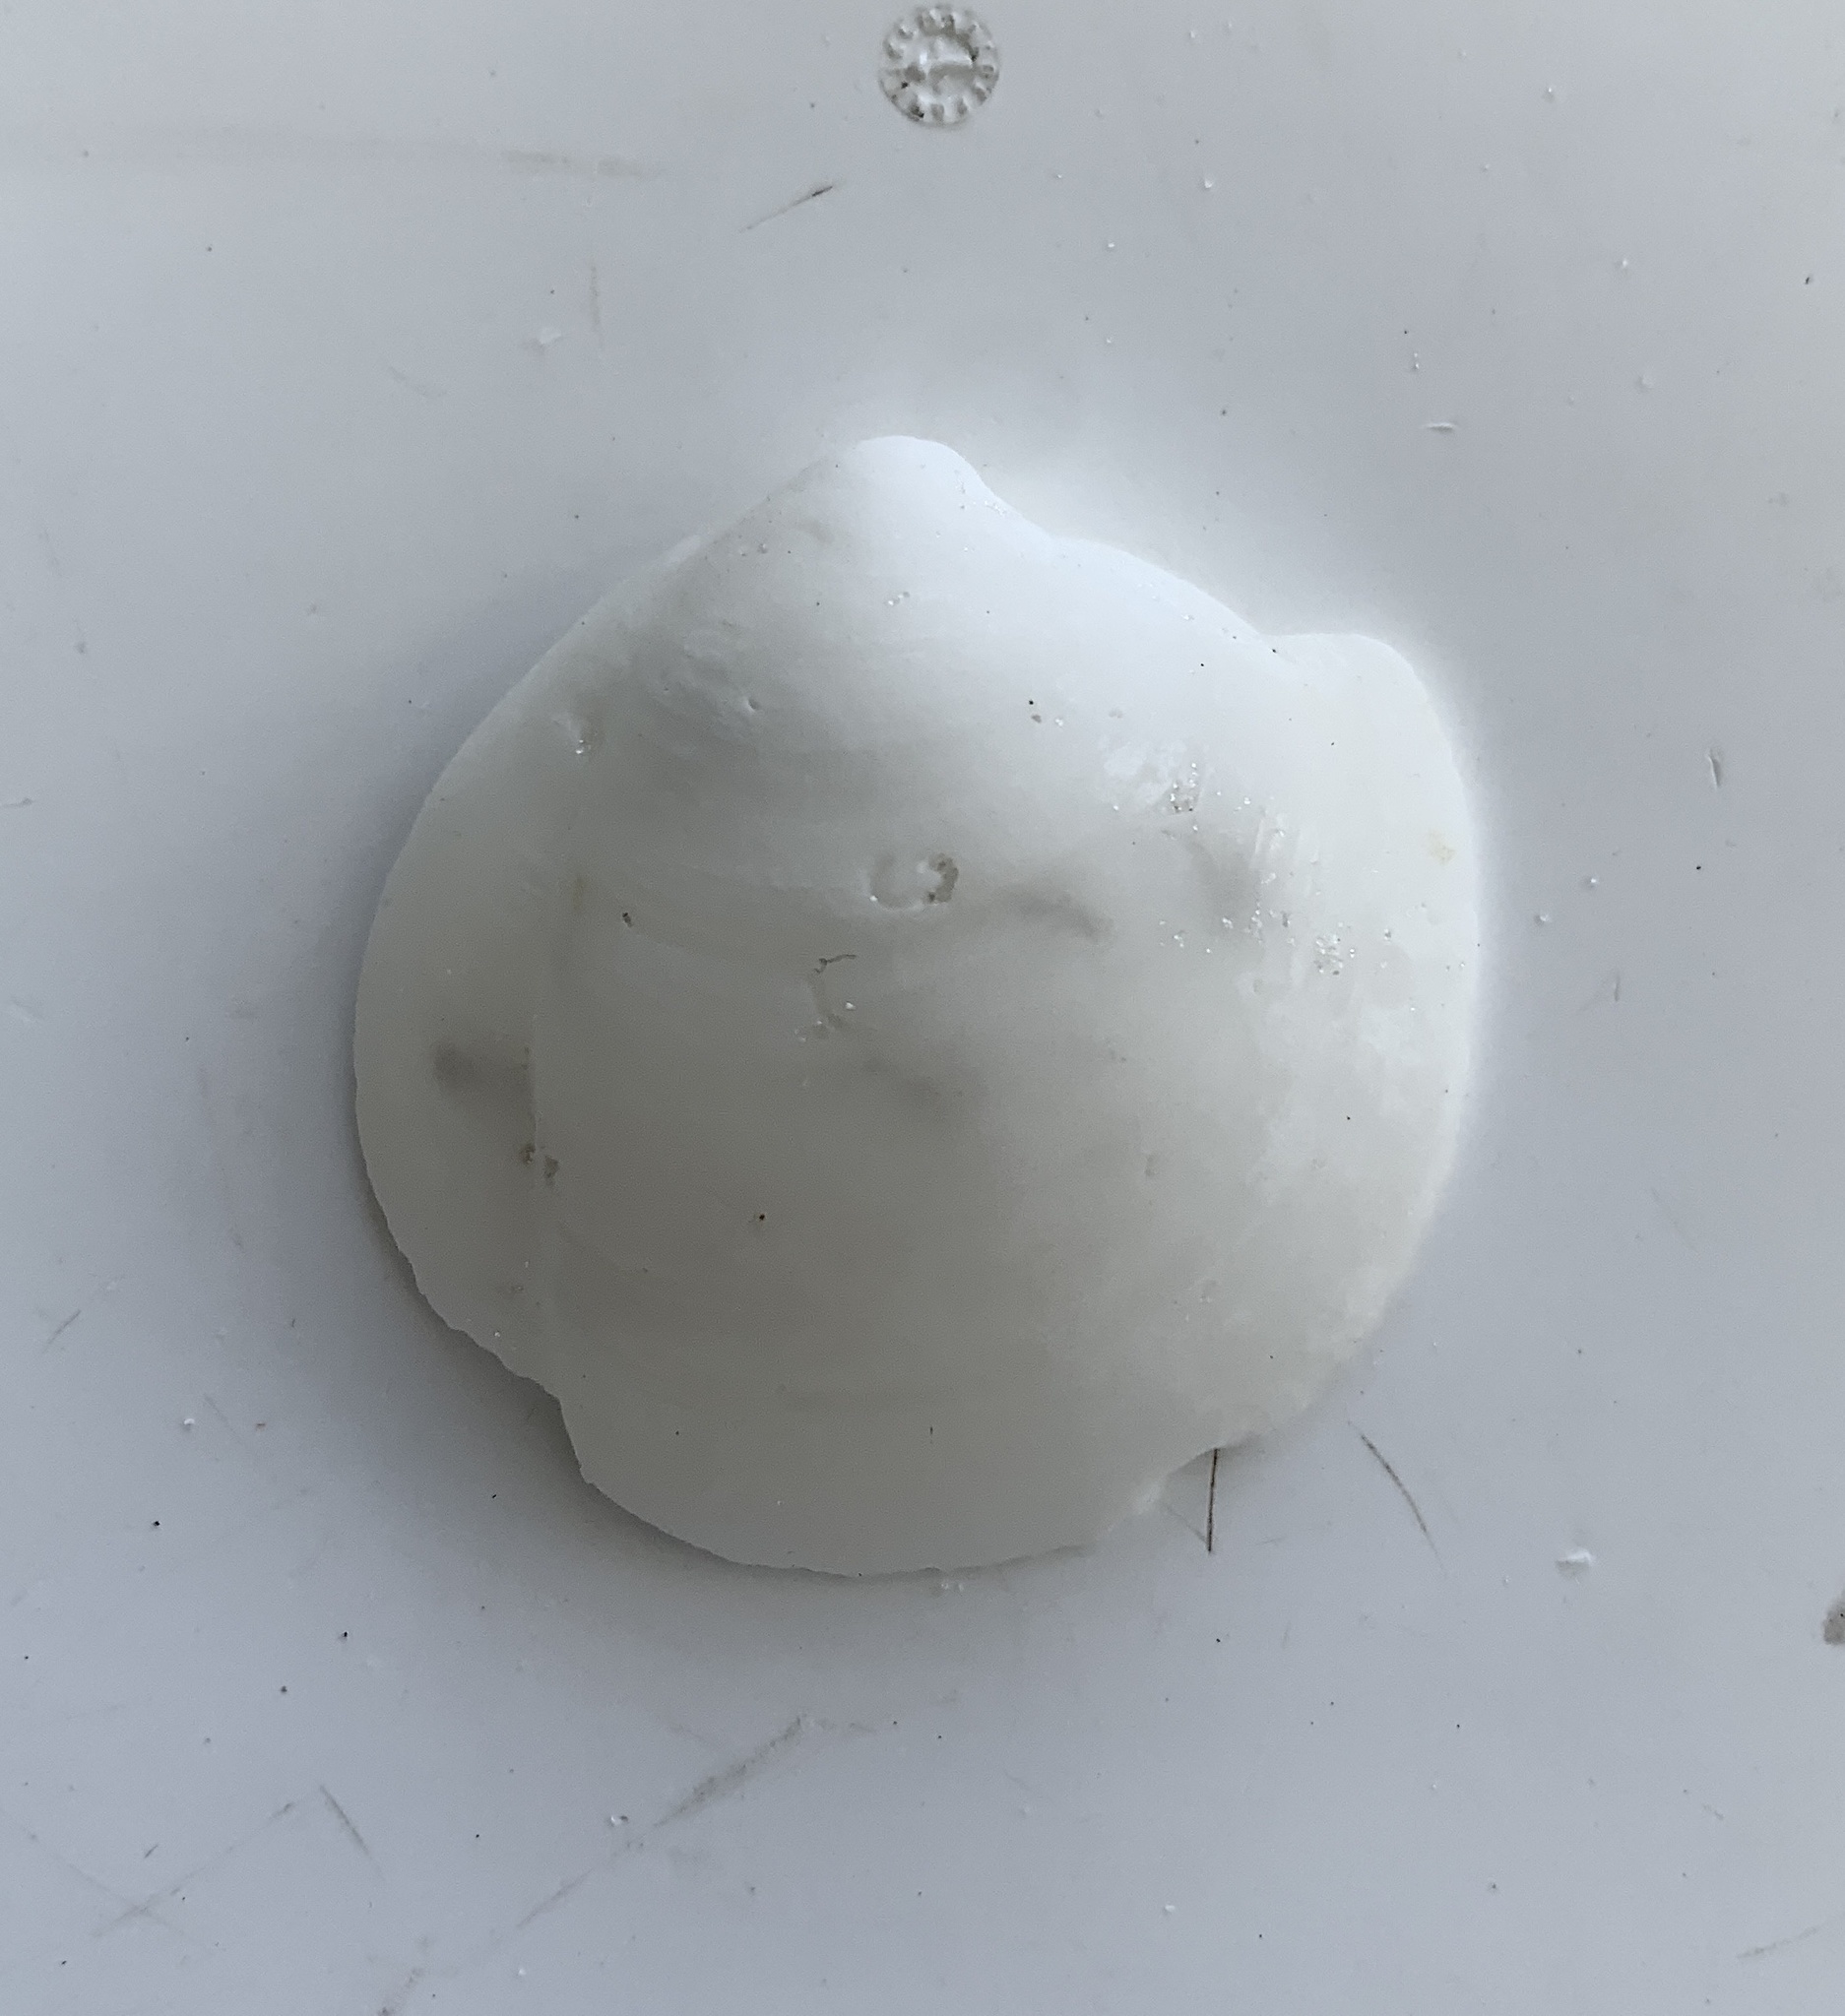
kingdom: Animalia
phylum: Mollusca
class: Bivalvia
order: Lucinida
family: Lucinidae
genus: Lucina
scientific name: Lucina pensylvanica
